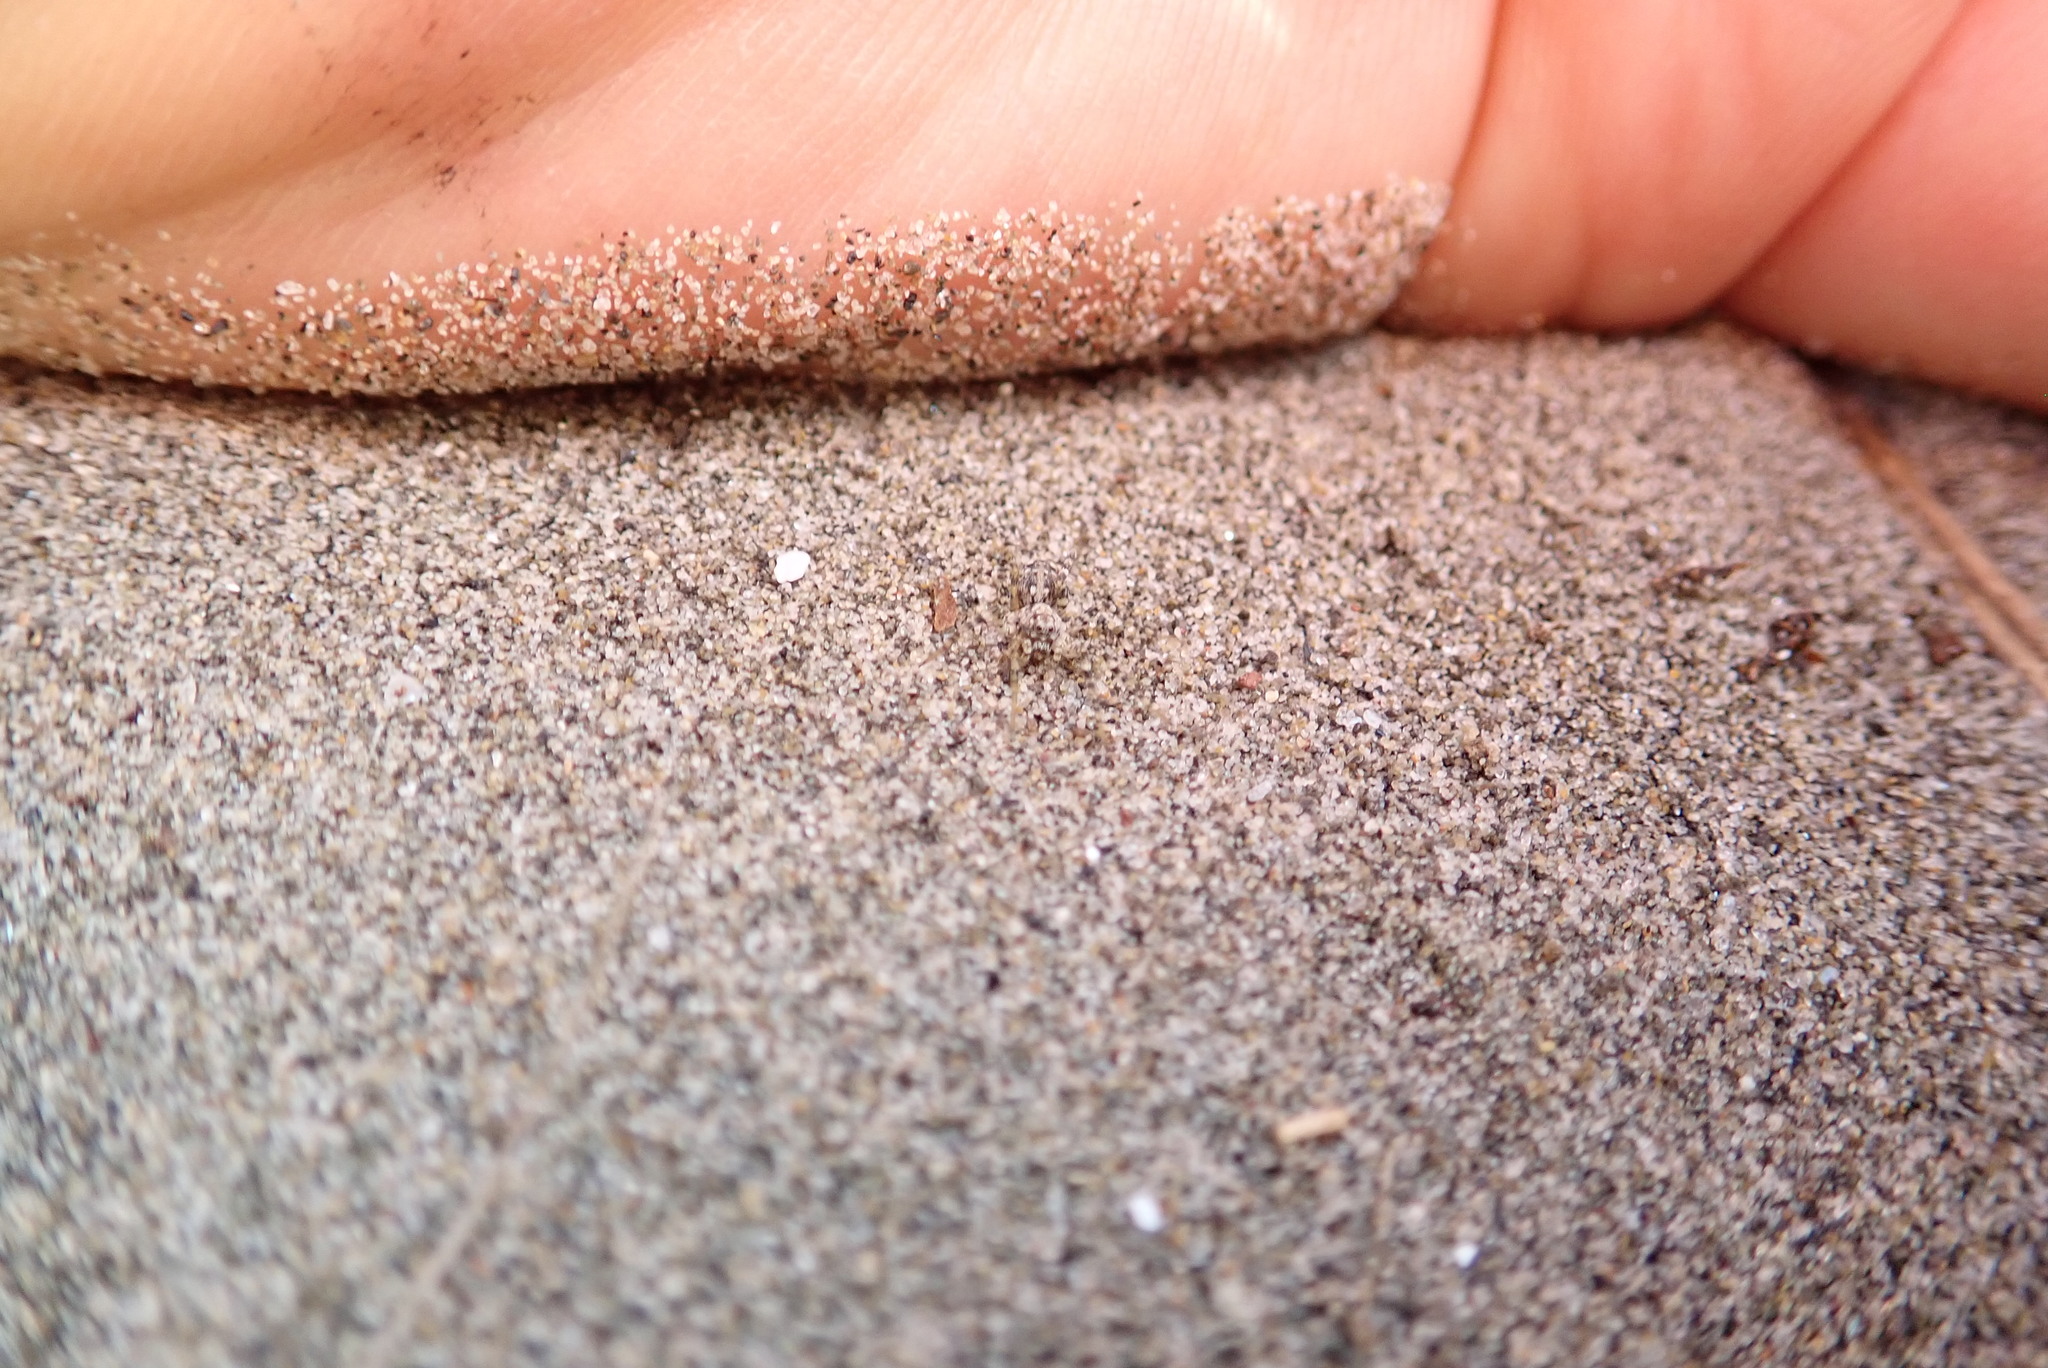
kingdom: Animalia
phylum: Arthropoda
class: Arachnida
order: Araneae
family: Lycosidae
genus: Anoteropsis
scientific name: Anoteropsis litoralis
